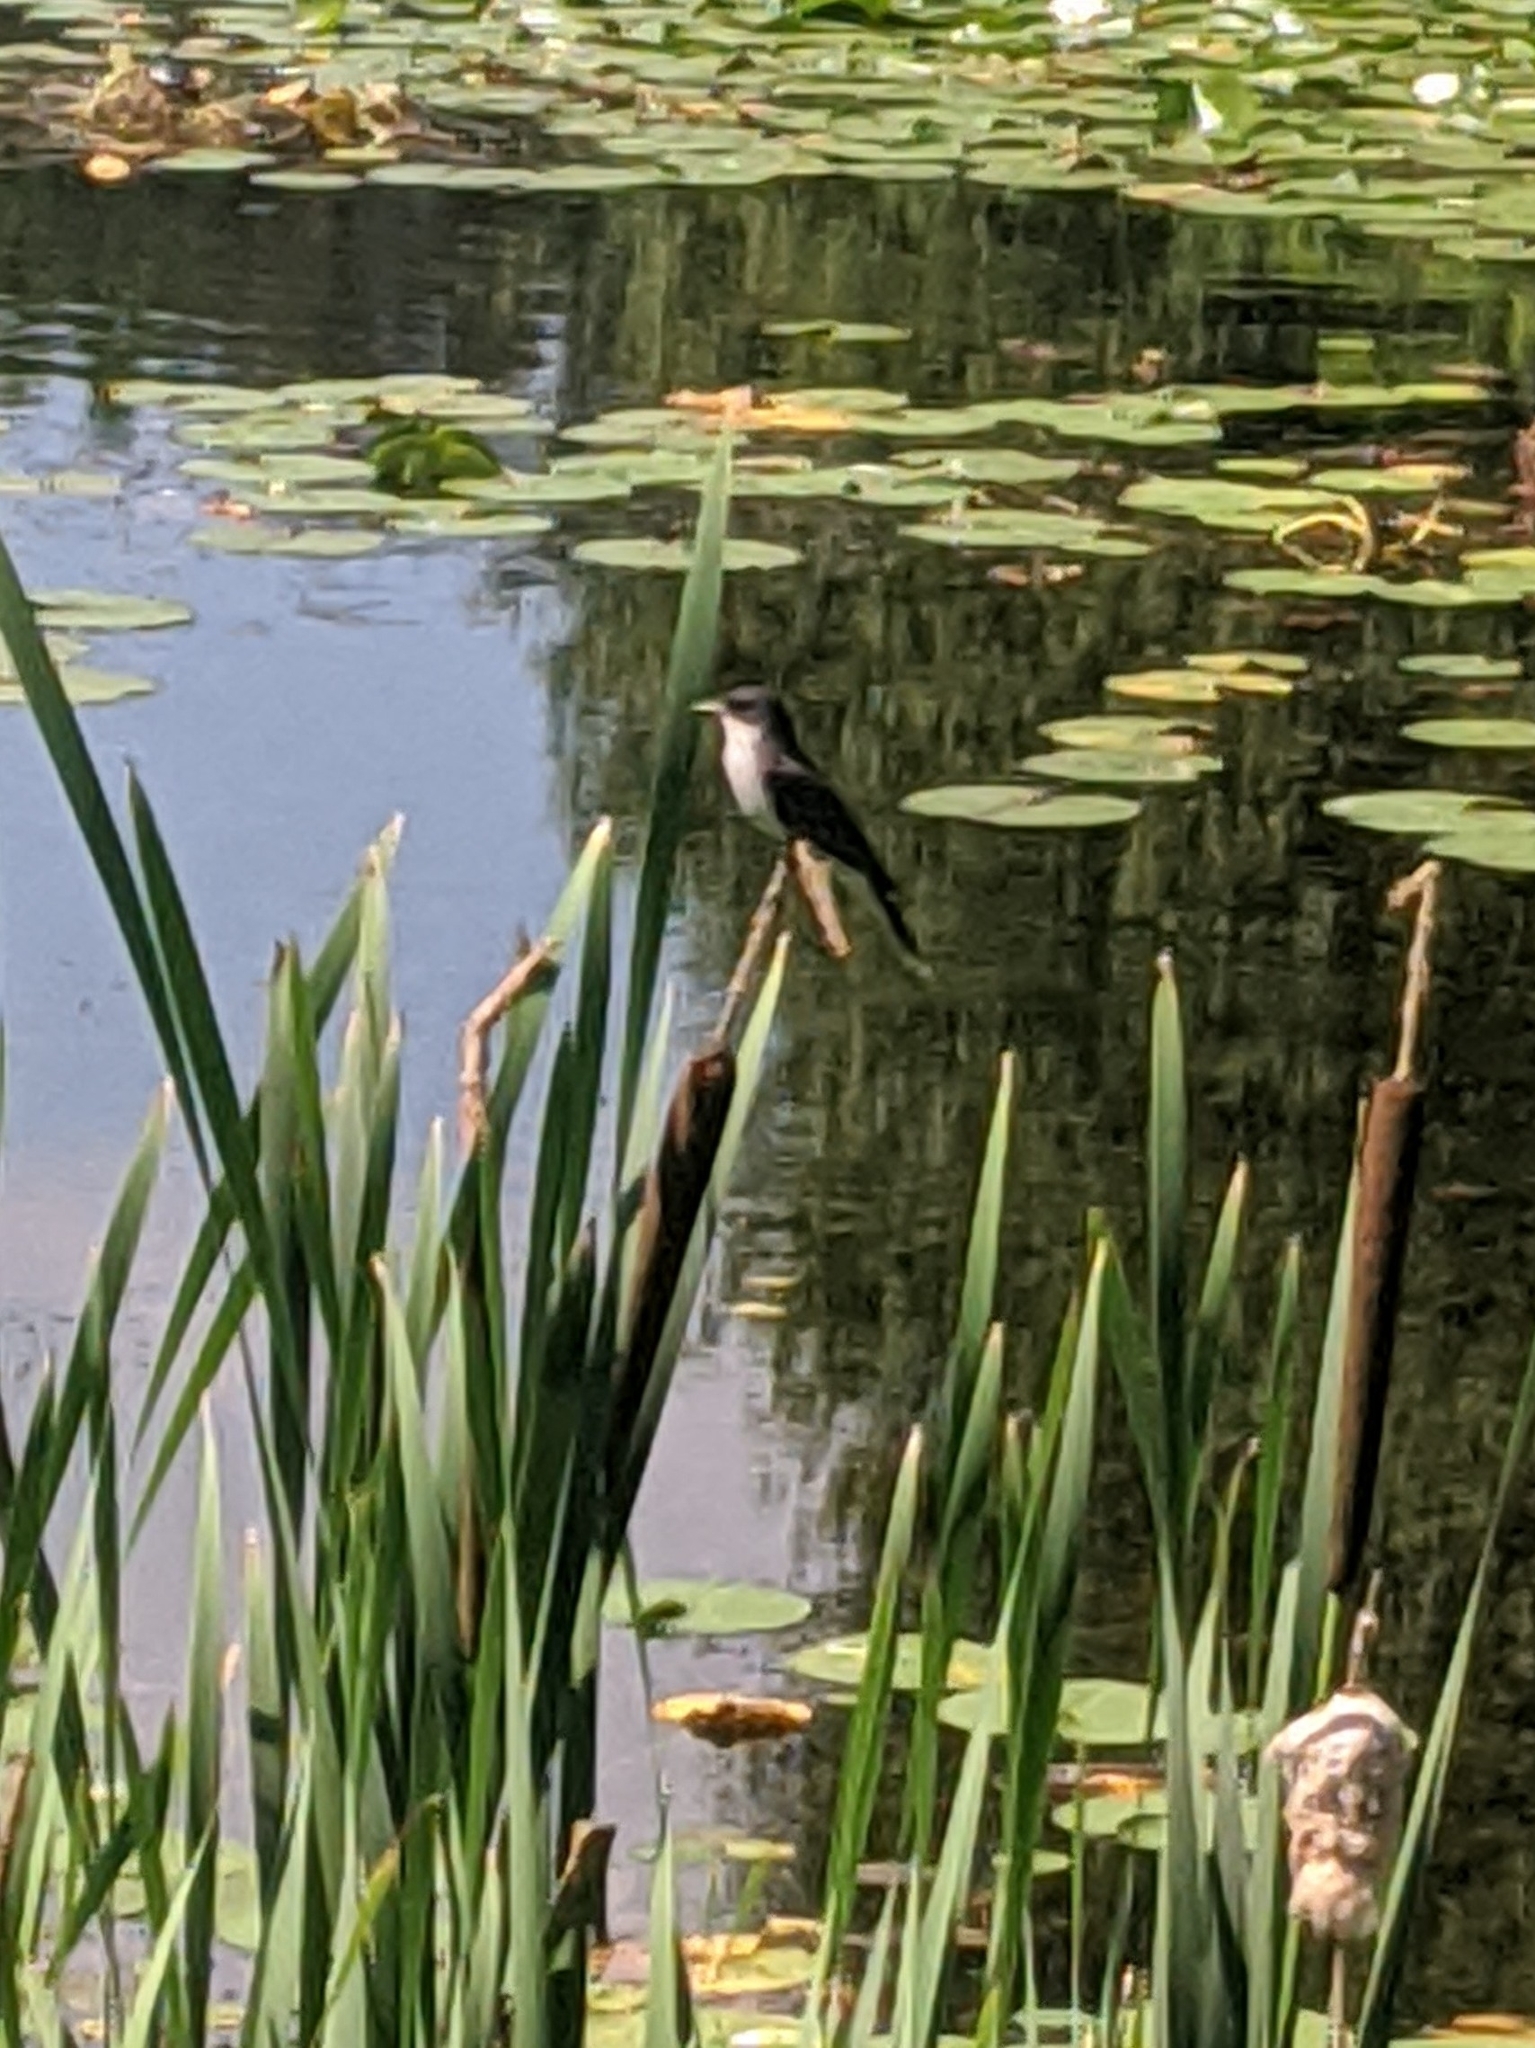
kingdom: Animalia
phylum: Chordata
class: Aves
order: Passeriformes
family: Tyrannidae
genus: Tyrannus
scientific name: Tyrannus tyrannus
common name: Eastern kingbird
